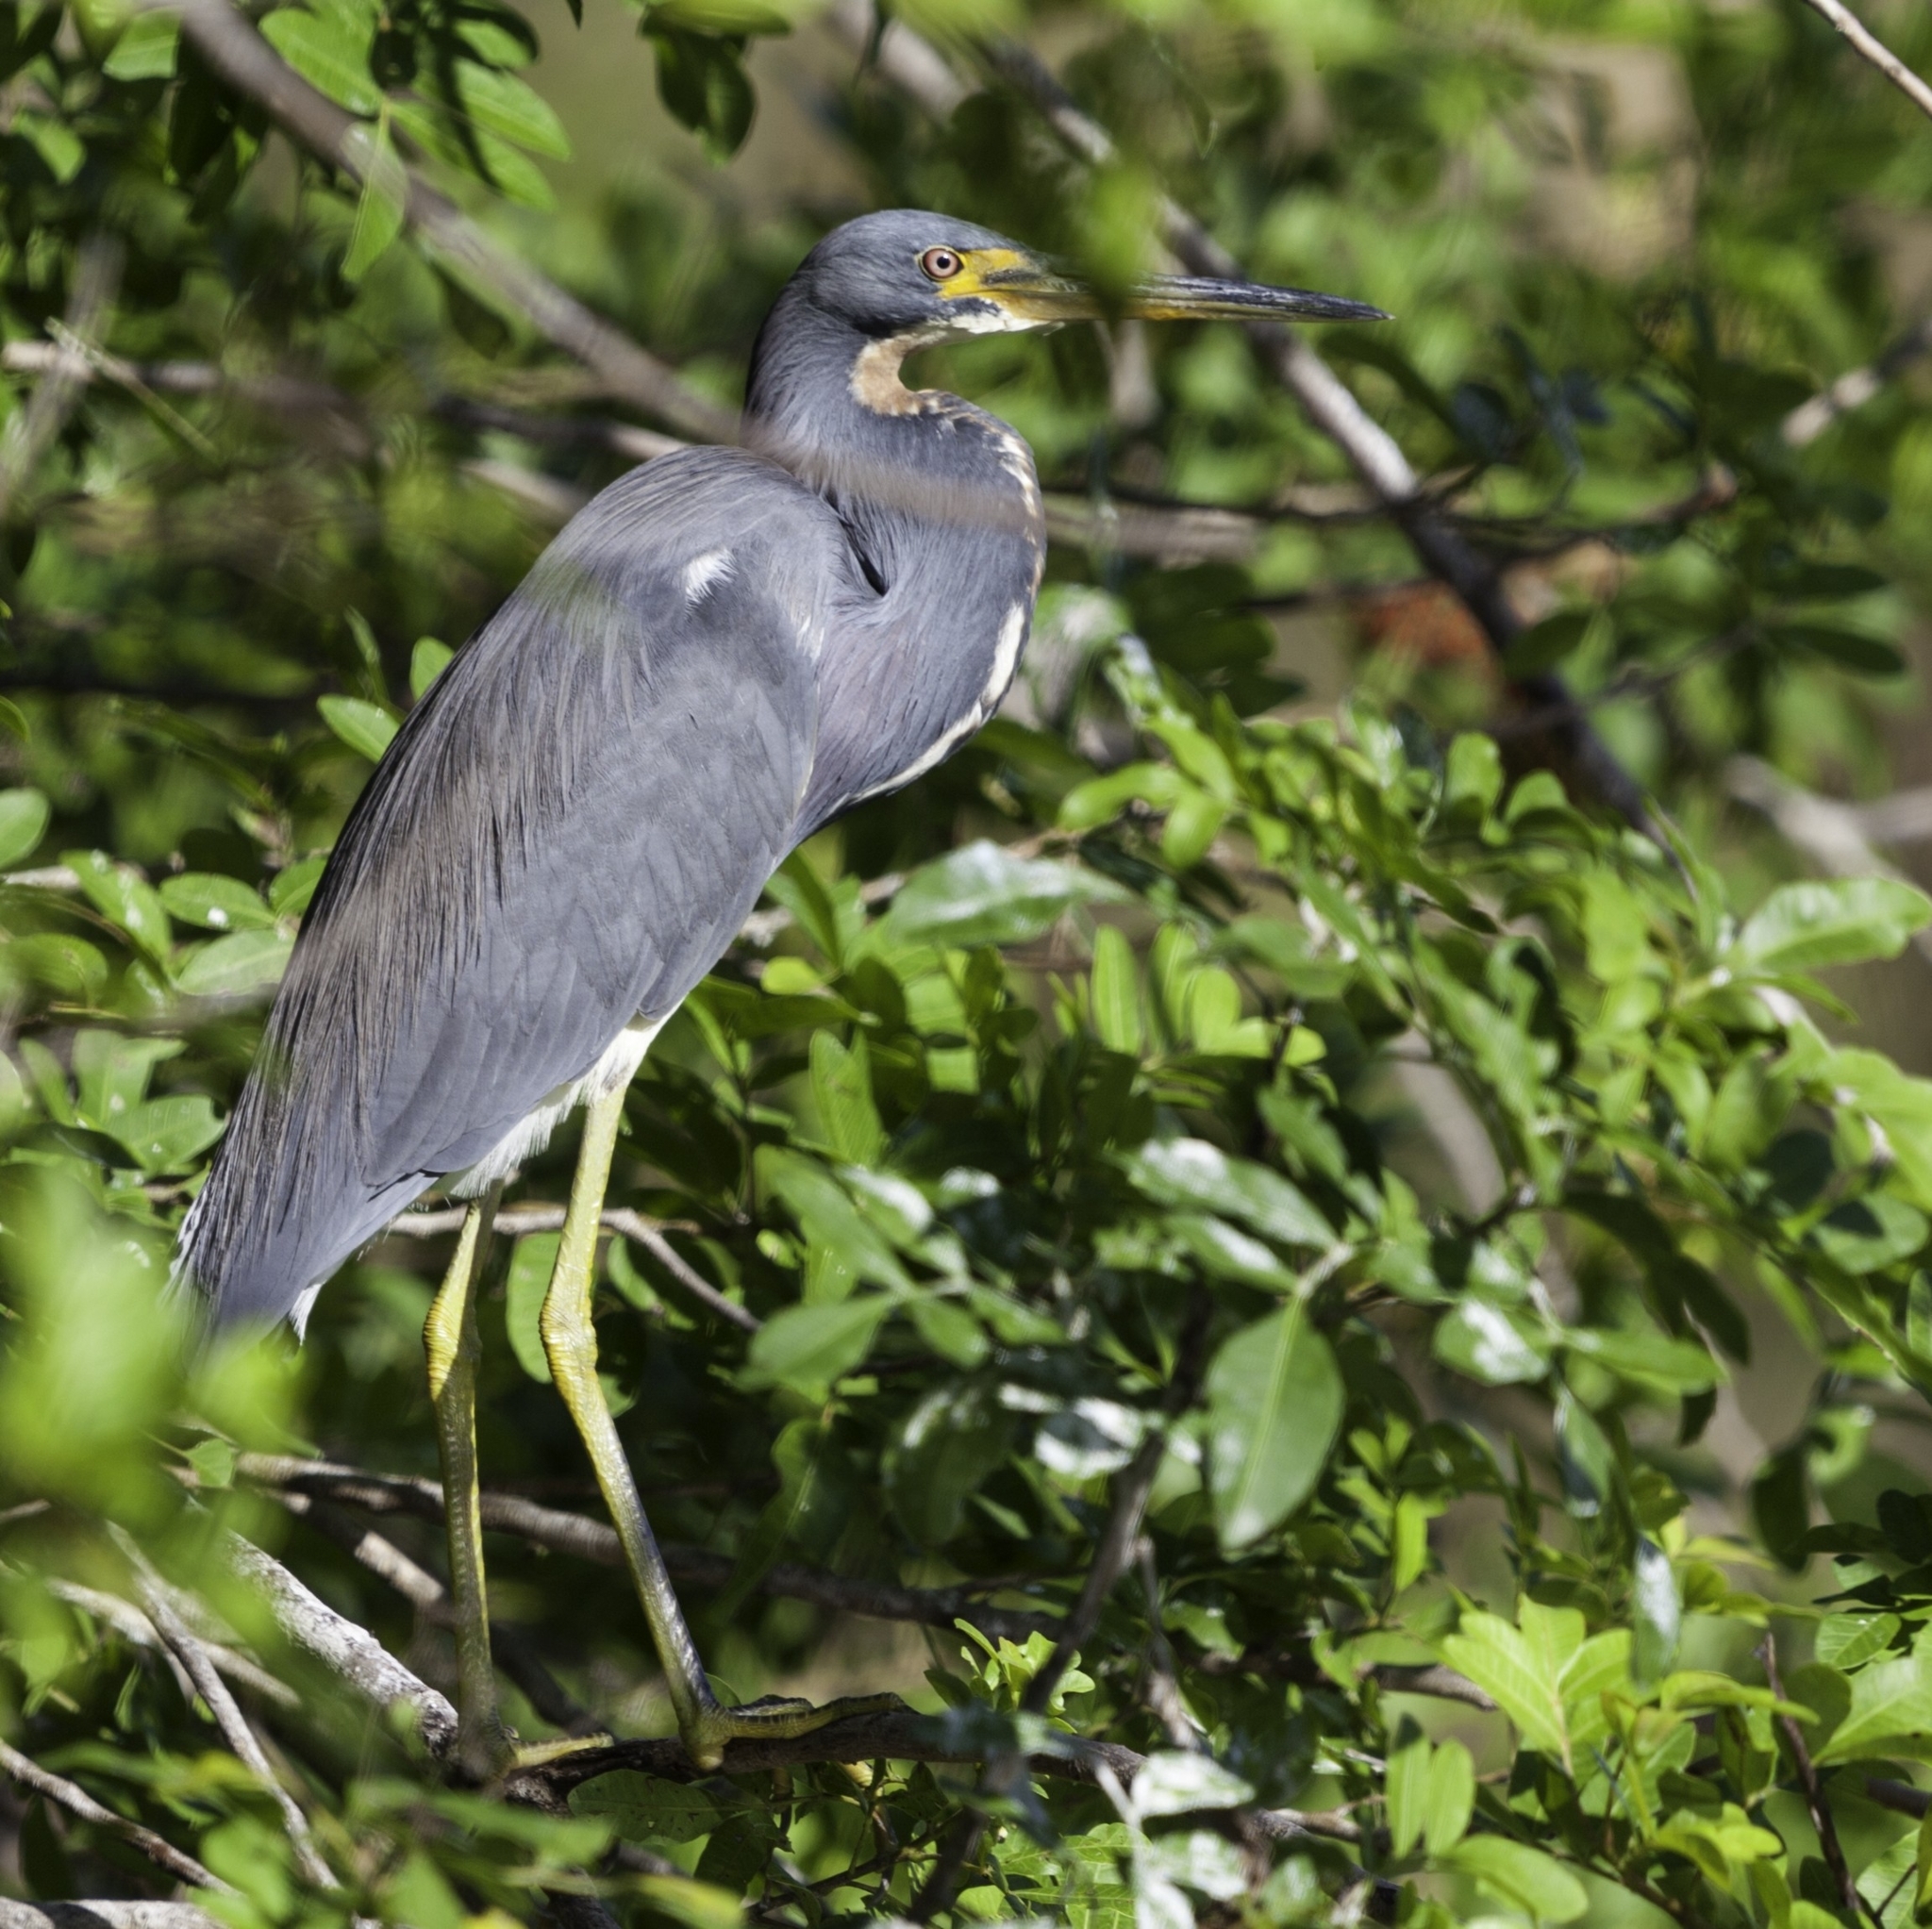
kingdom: Animalia
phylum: Chordata
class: Aves
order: Pelecaniformes
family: Ardeidae
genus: Egretta
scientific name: Egretta tricolor
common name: Tricolored heron
